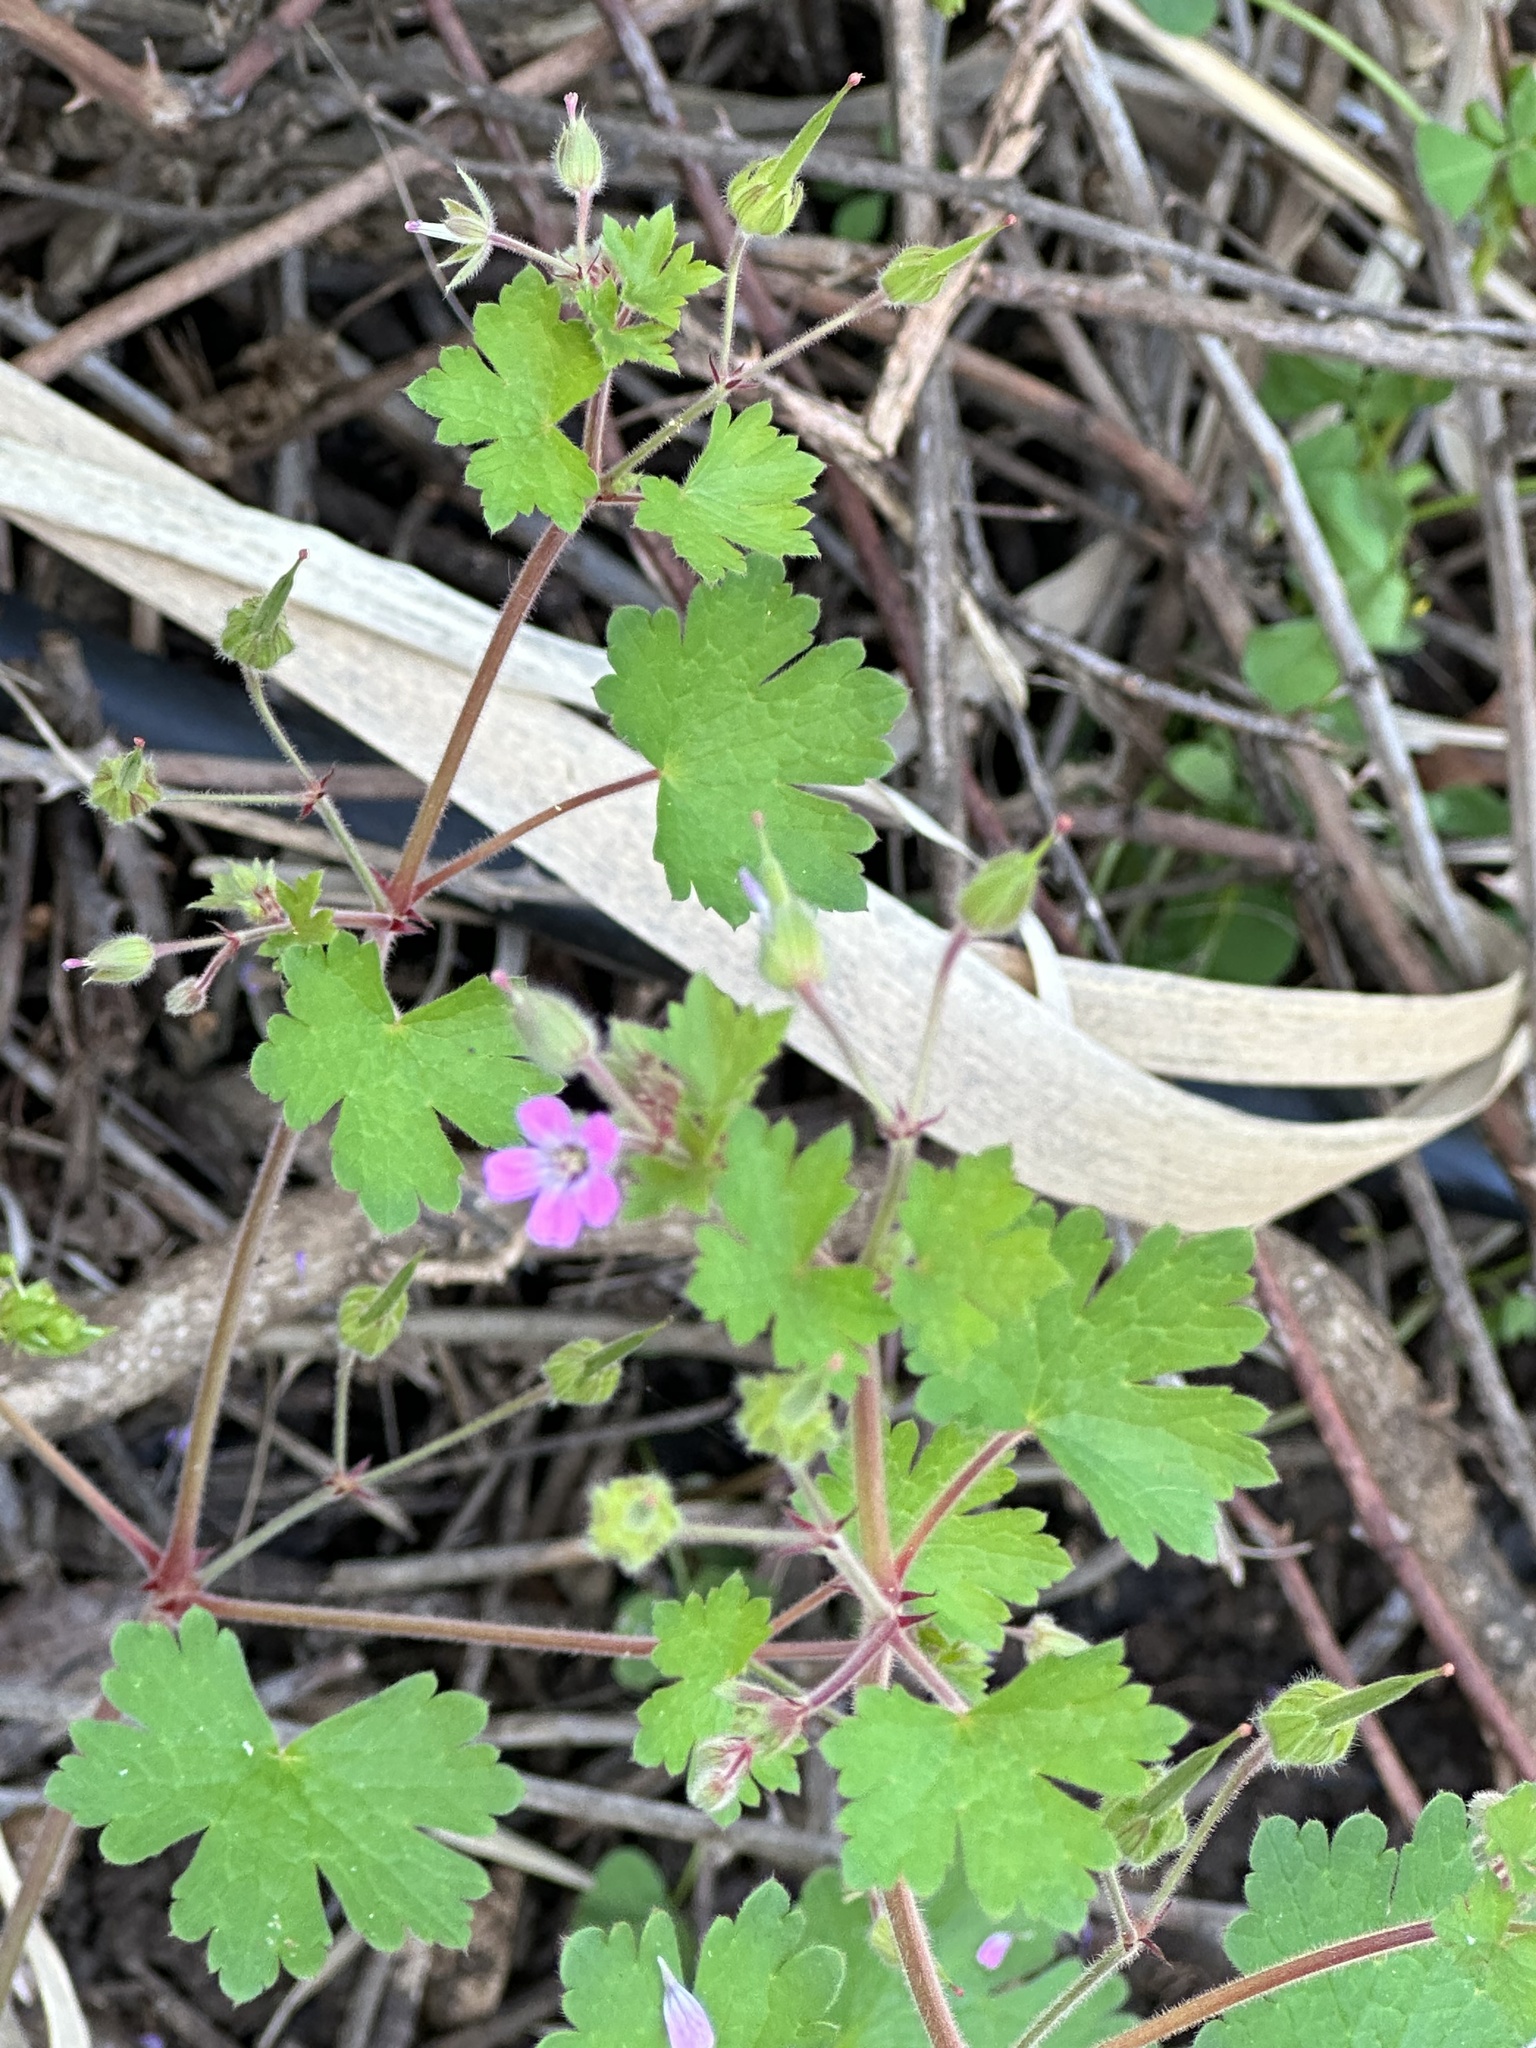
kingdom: Plantae
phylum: Tracheophyta
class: Magnoliopsida
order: Geraniales
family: Geraniaceae
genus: Geranium
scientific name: Geranium rotundifolium
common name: Round-leaved crane's-bill
